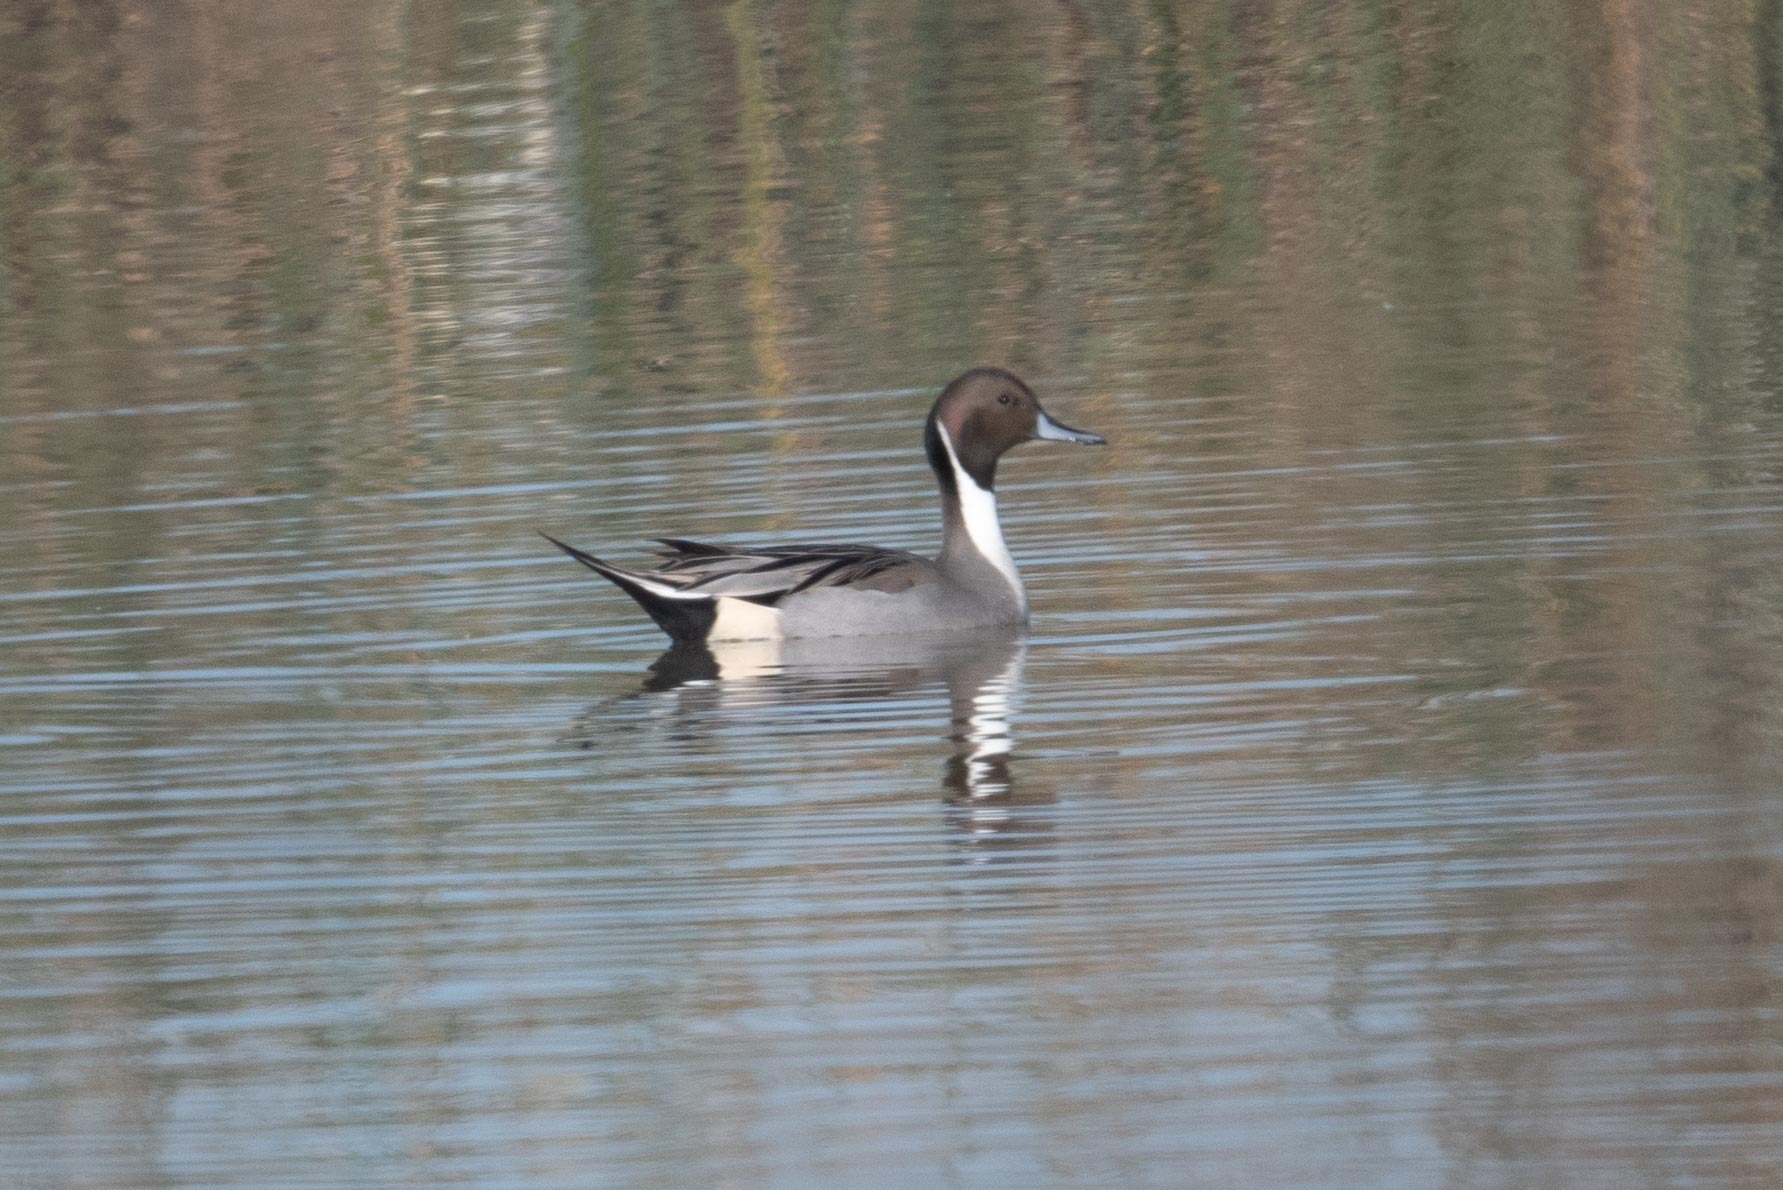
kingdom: Animalia
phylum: Chordata
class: Aves
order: Anseriformes
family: Anatidae
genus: Anas
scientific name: Anas acuta
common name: Northern pintail
